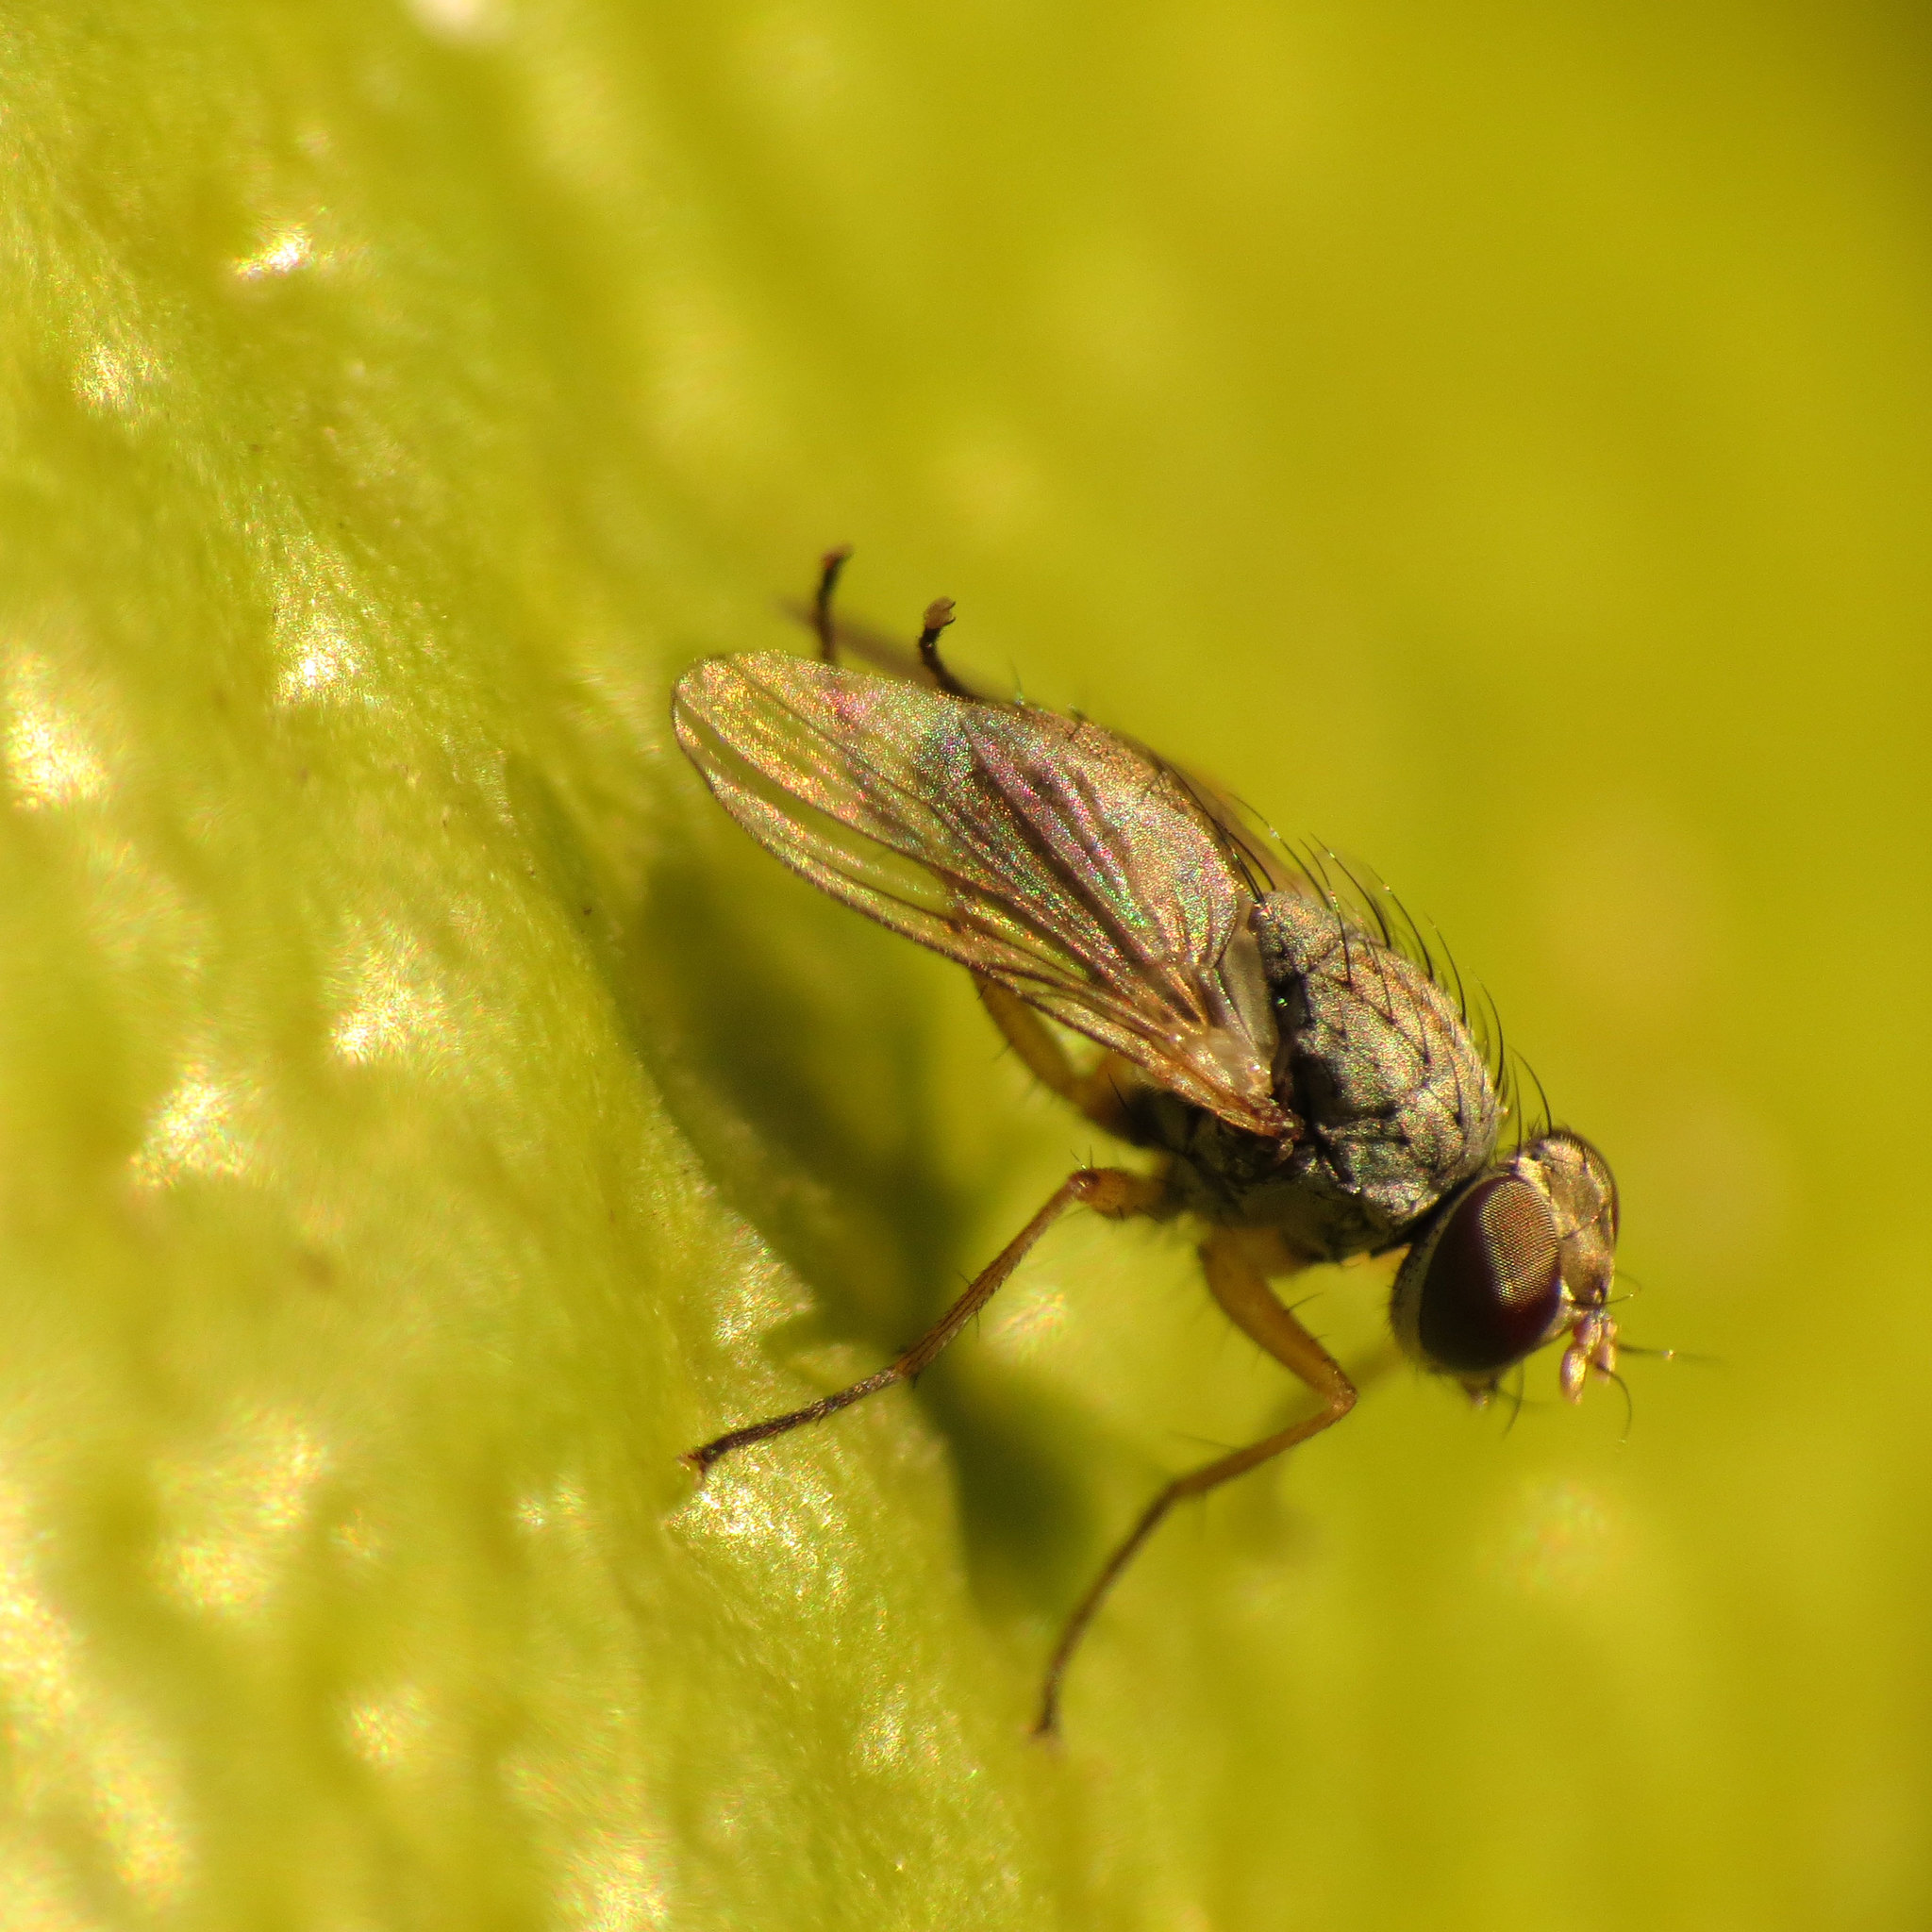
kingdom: Animalia
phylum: Arthropoda
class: Insecta
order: Diptera
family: Muscidae
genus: Coenosia
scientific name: Coenosia attenuata
